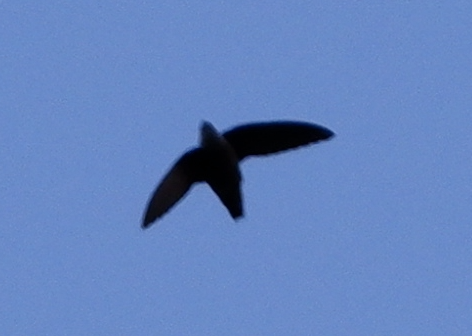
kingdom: Animalia
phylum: Chordata
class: Aves
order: Apodiformes
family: Apodidae
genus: Chaetura
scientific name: Chaetura pelagica
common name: Chimney swift
